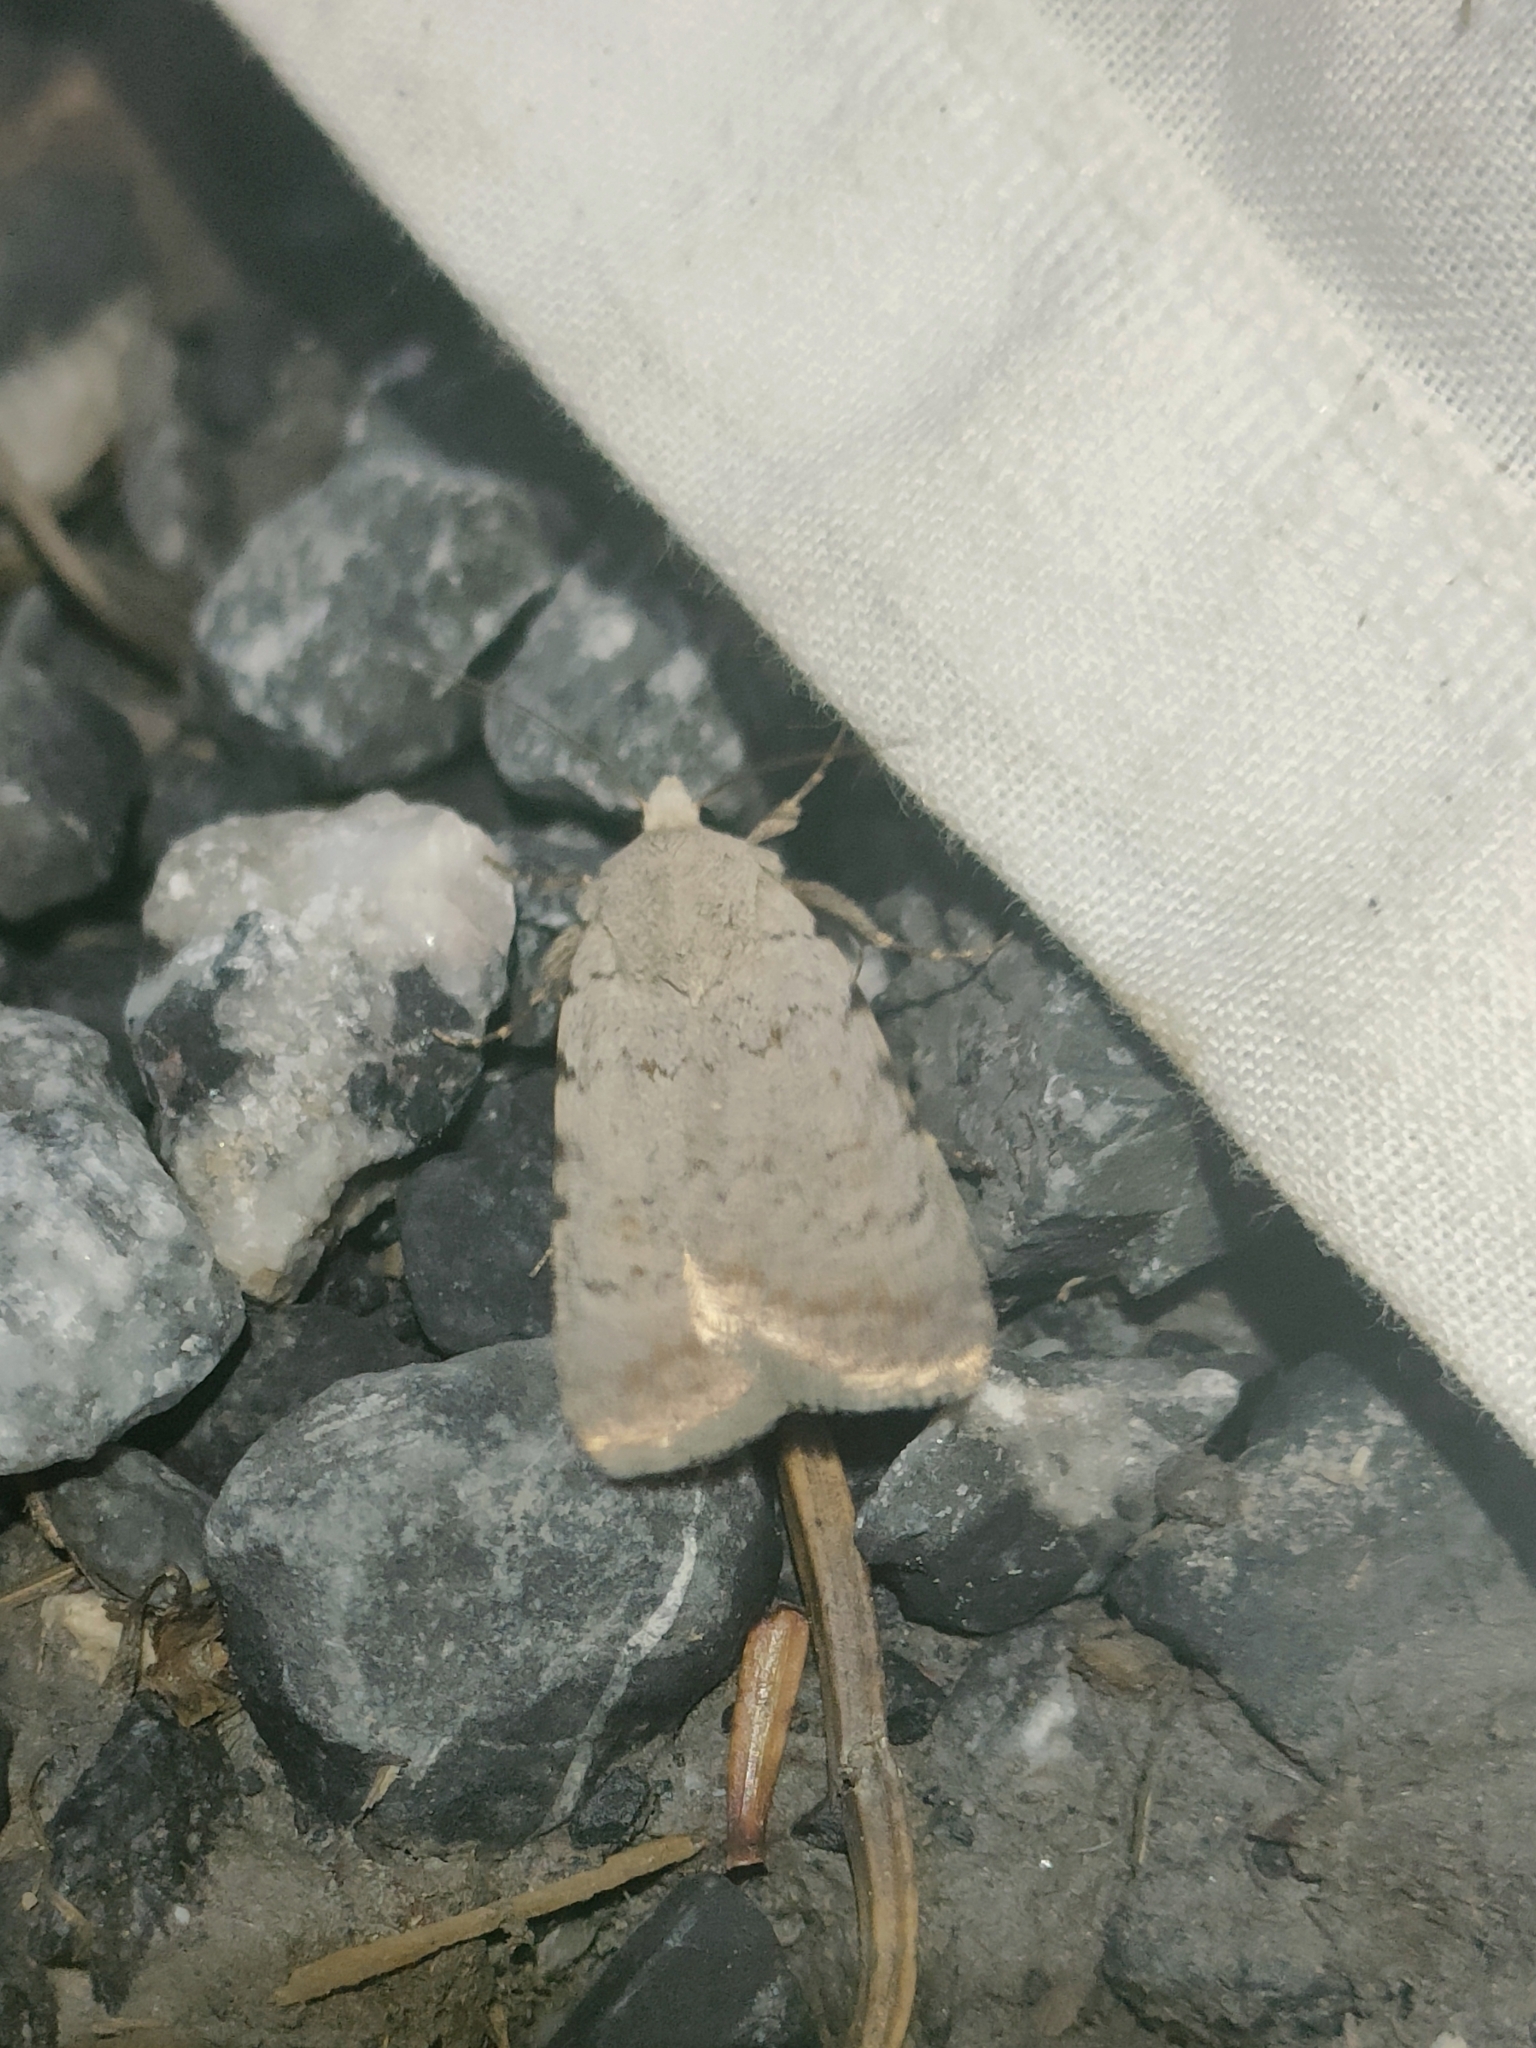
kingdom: Animalia
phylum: Arthropoda
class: Insecta
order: Lepidoptera
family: Noctuidae
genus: Caradrina
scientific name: Caradrina clavipalpis
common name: Pale mottled willow
